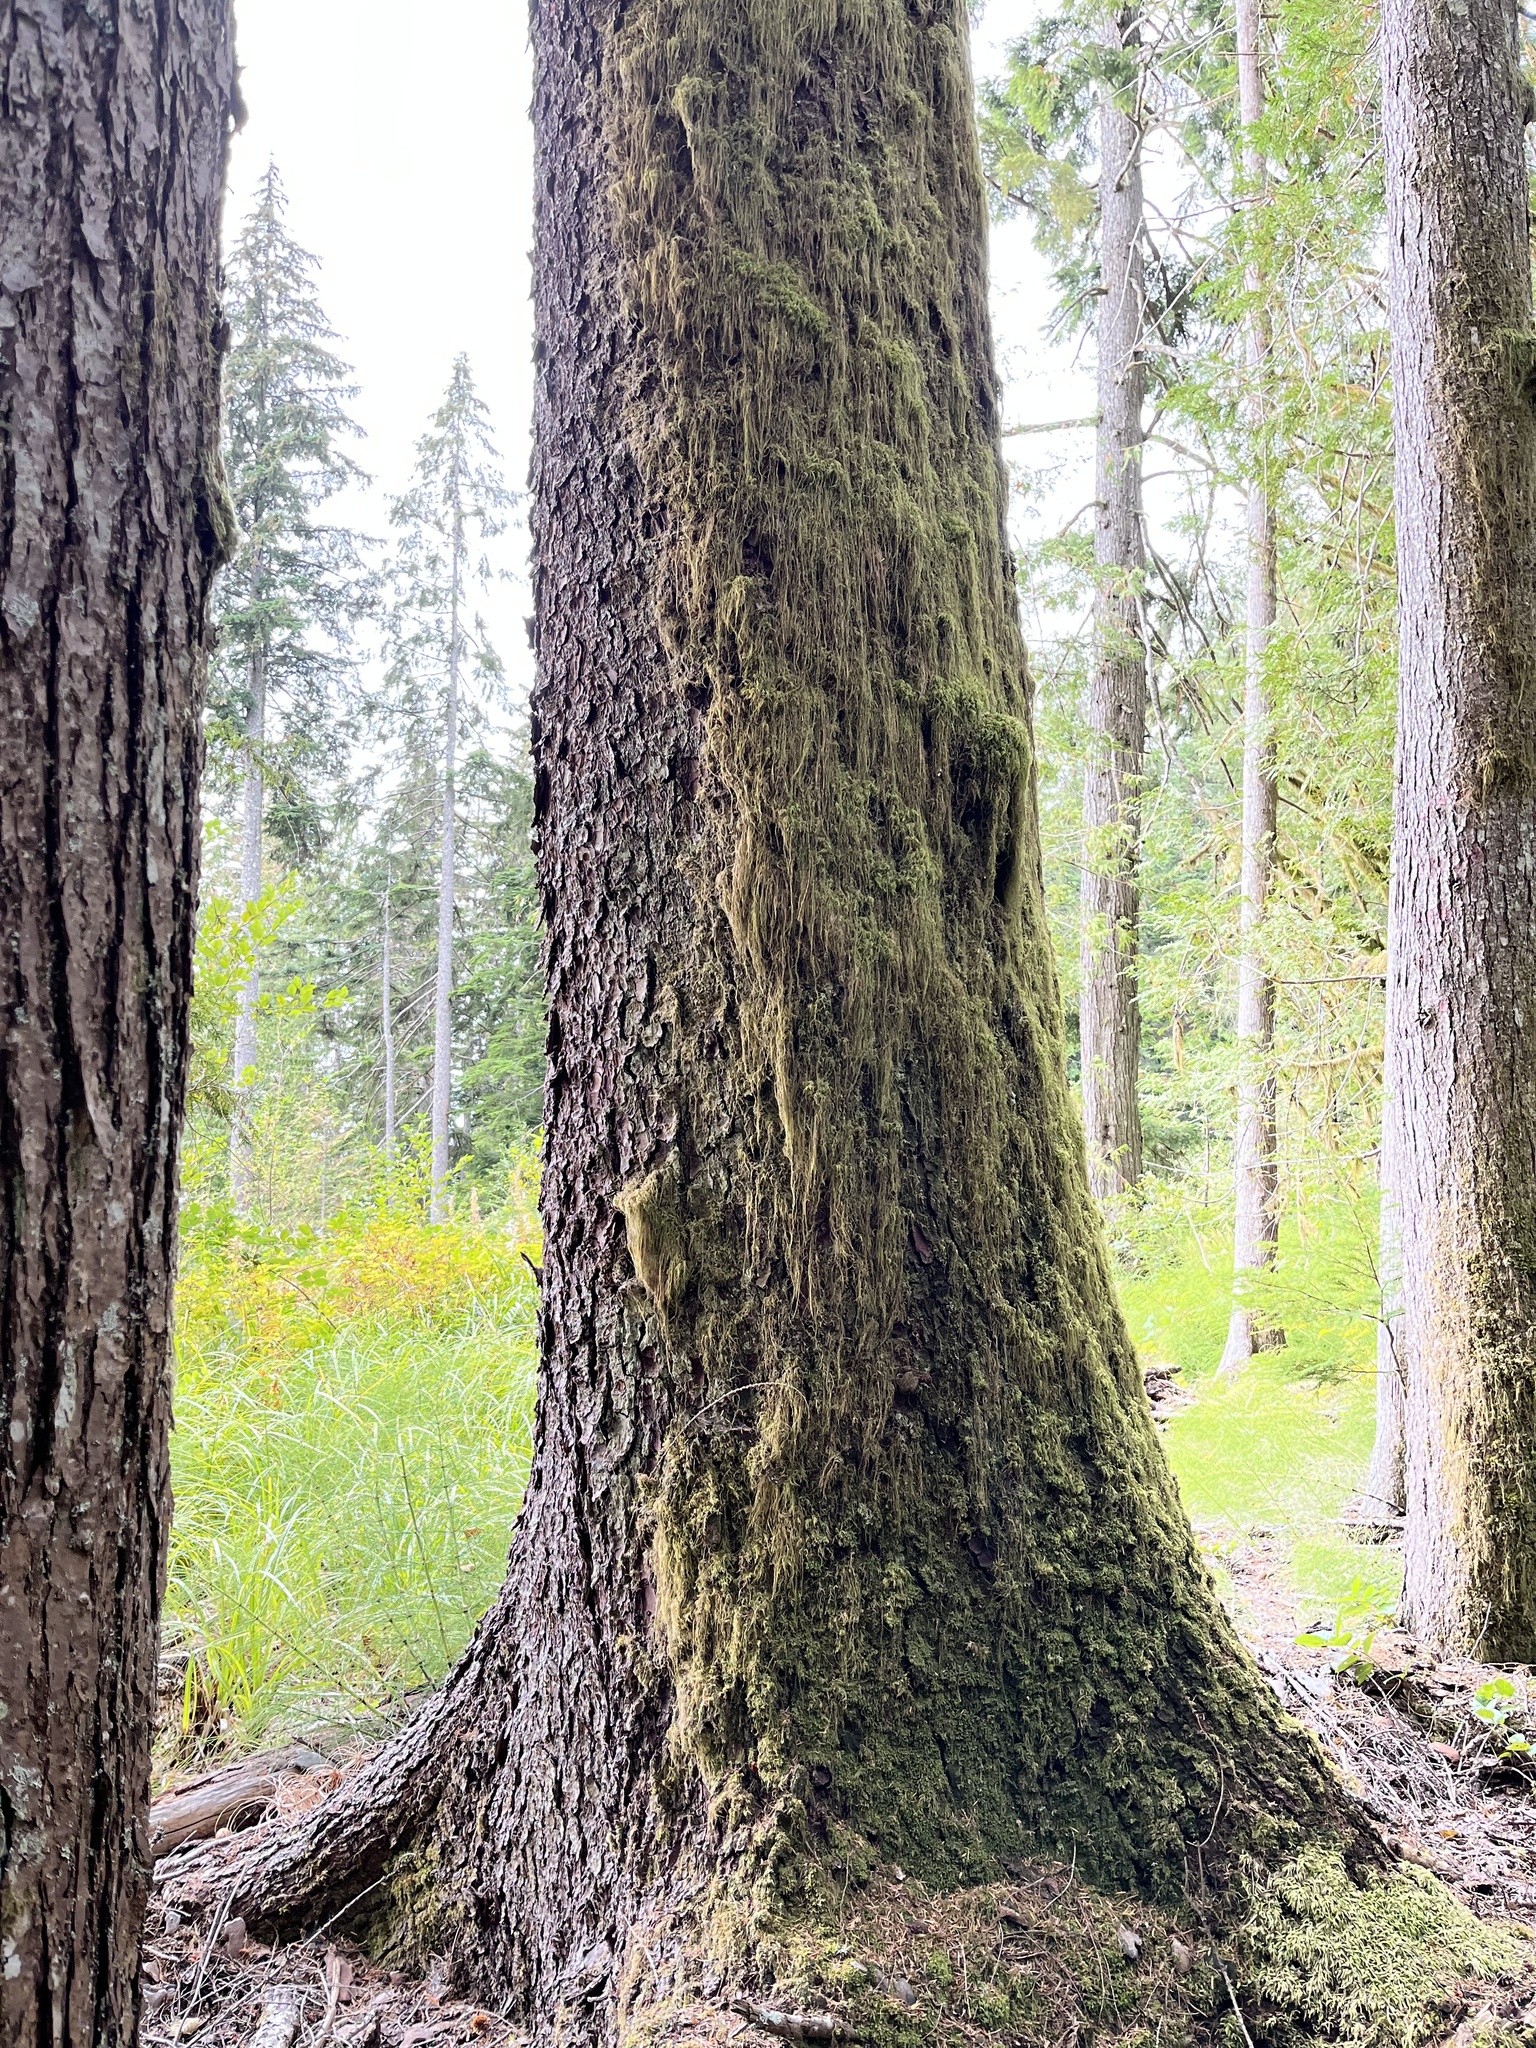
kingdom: Plantae
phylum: Tracheophyta
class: Pinopsida
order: Pinales
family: Pinaceae
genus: Picea
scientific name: Picea sitchensis
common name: Sitka spruce
